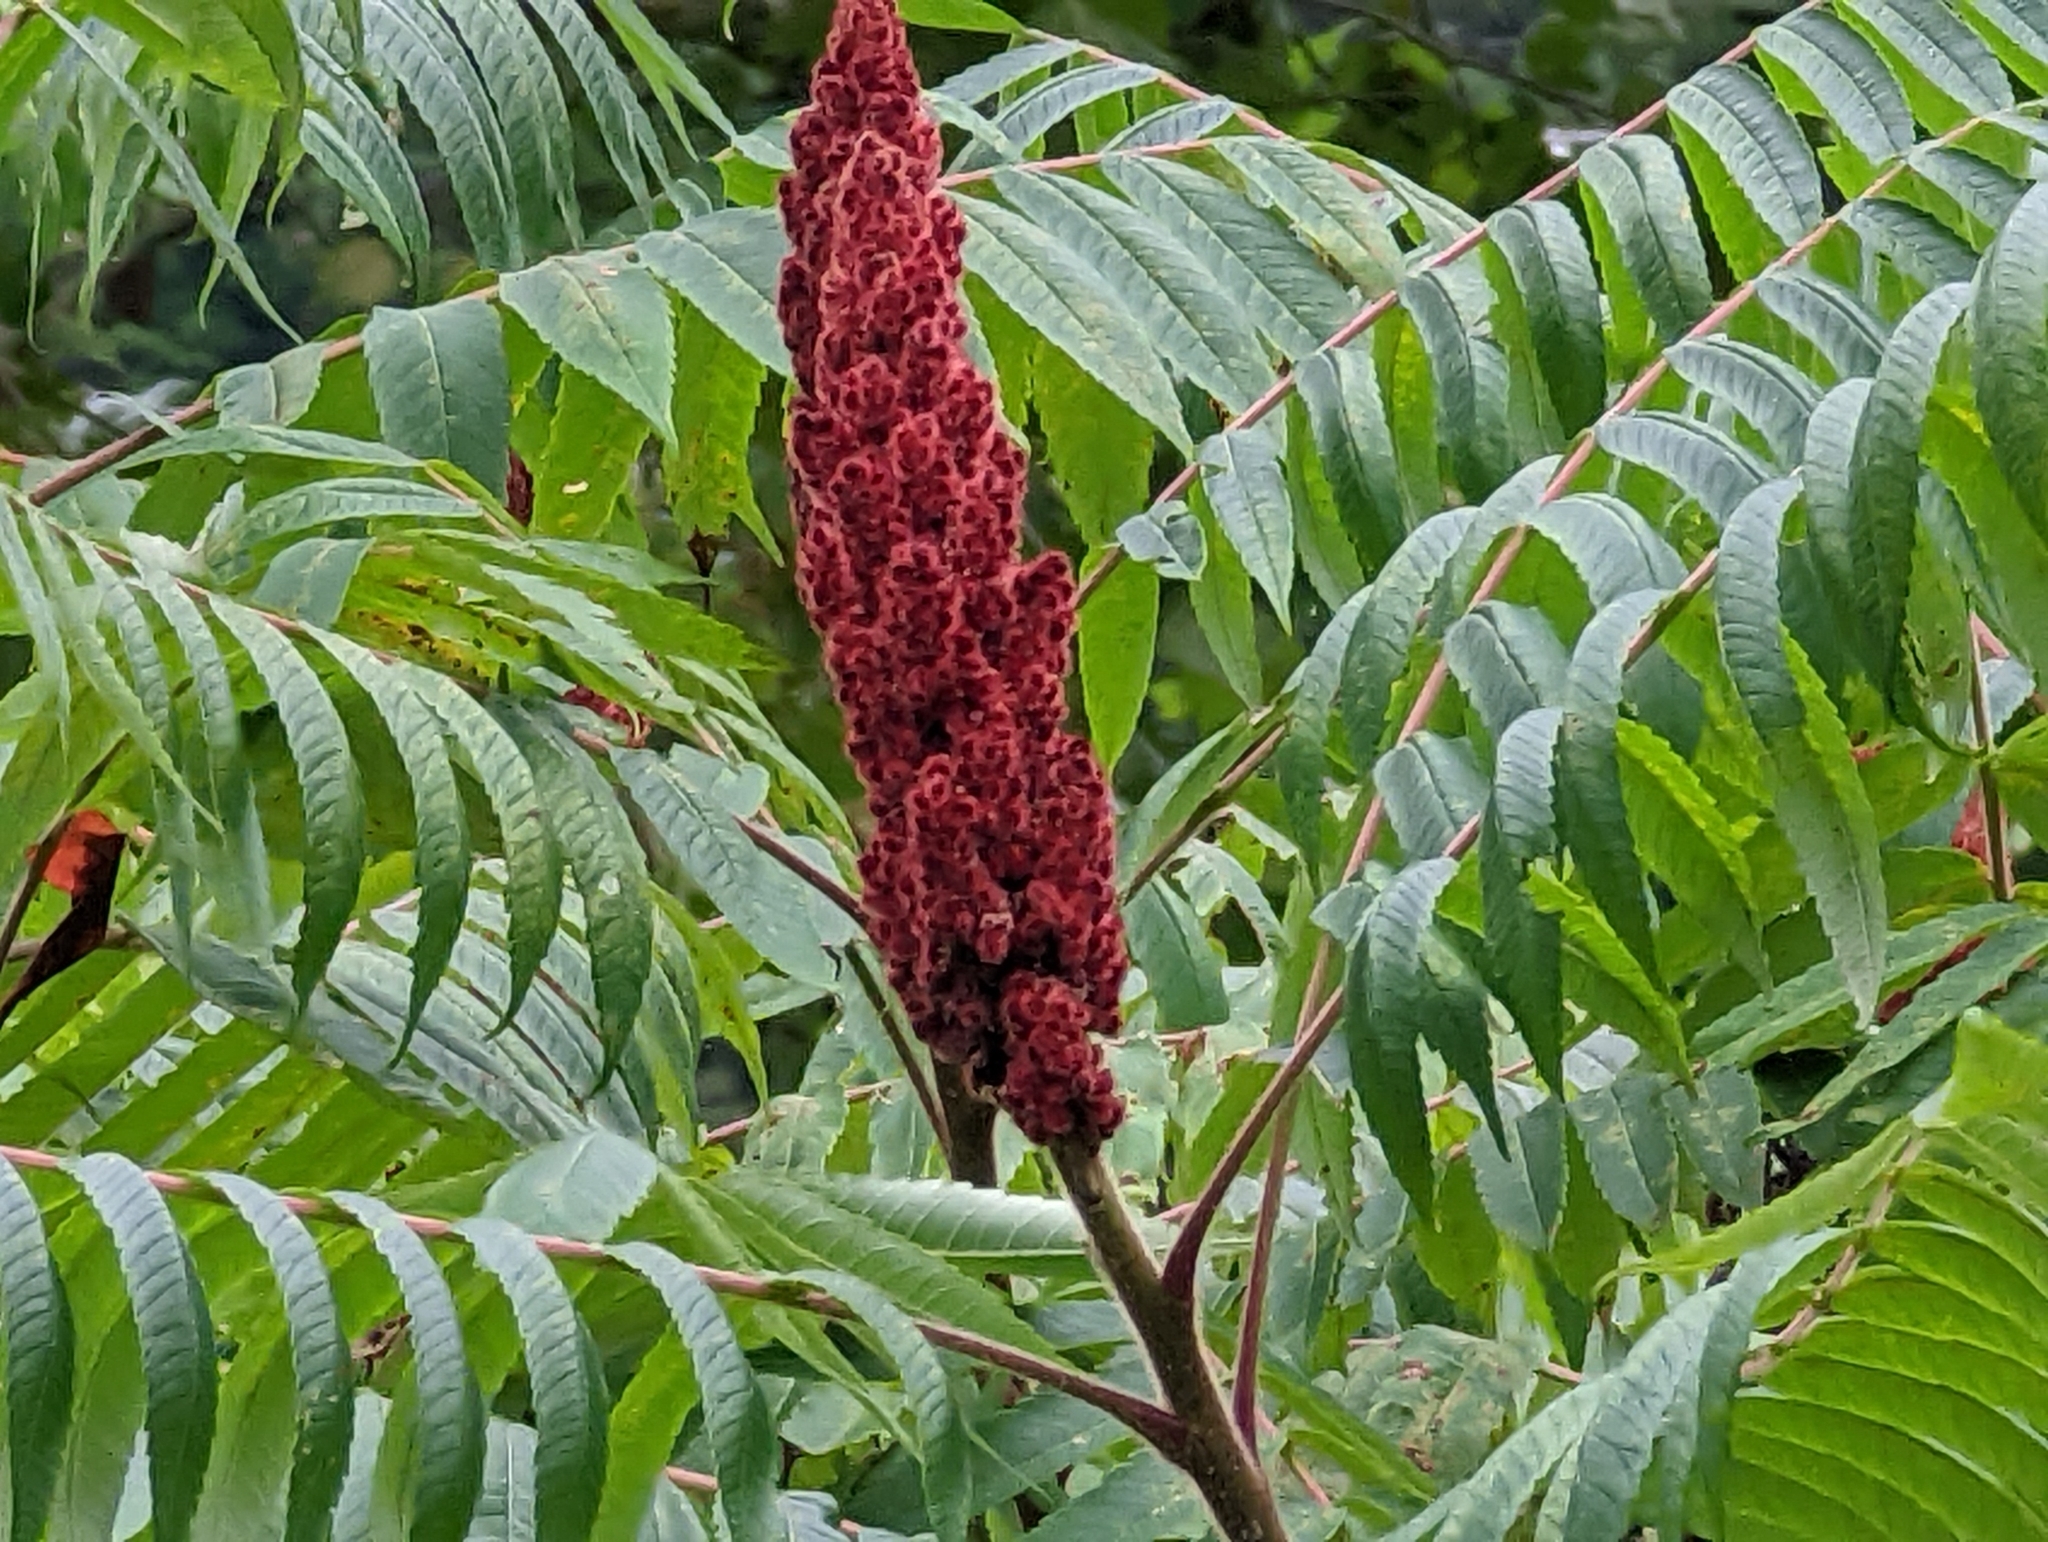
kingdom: Plantae
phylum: Tracheophyta
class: Magnoliopsida
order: Sapindales
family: Anacardiaceae
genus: Rhus
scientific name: Rhus typhina
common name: Staghorn sumac
